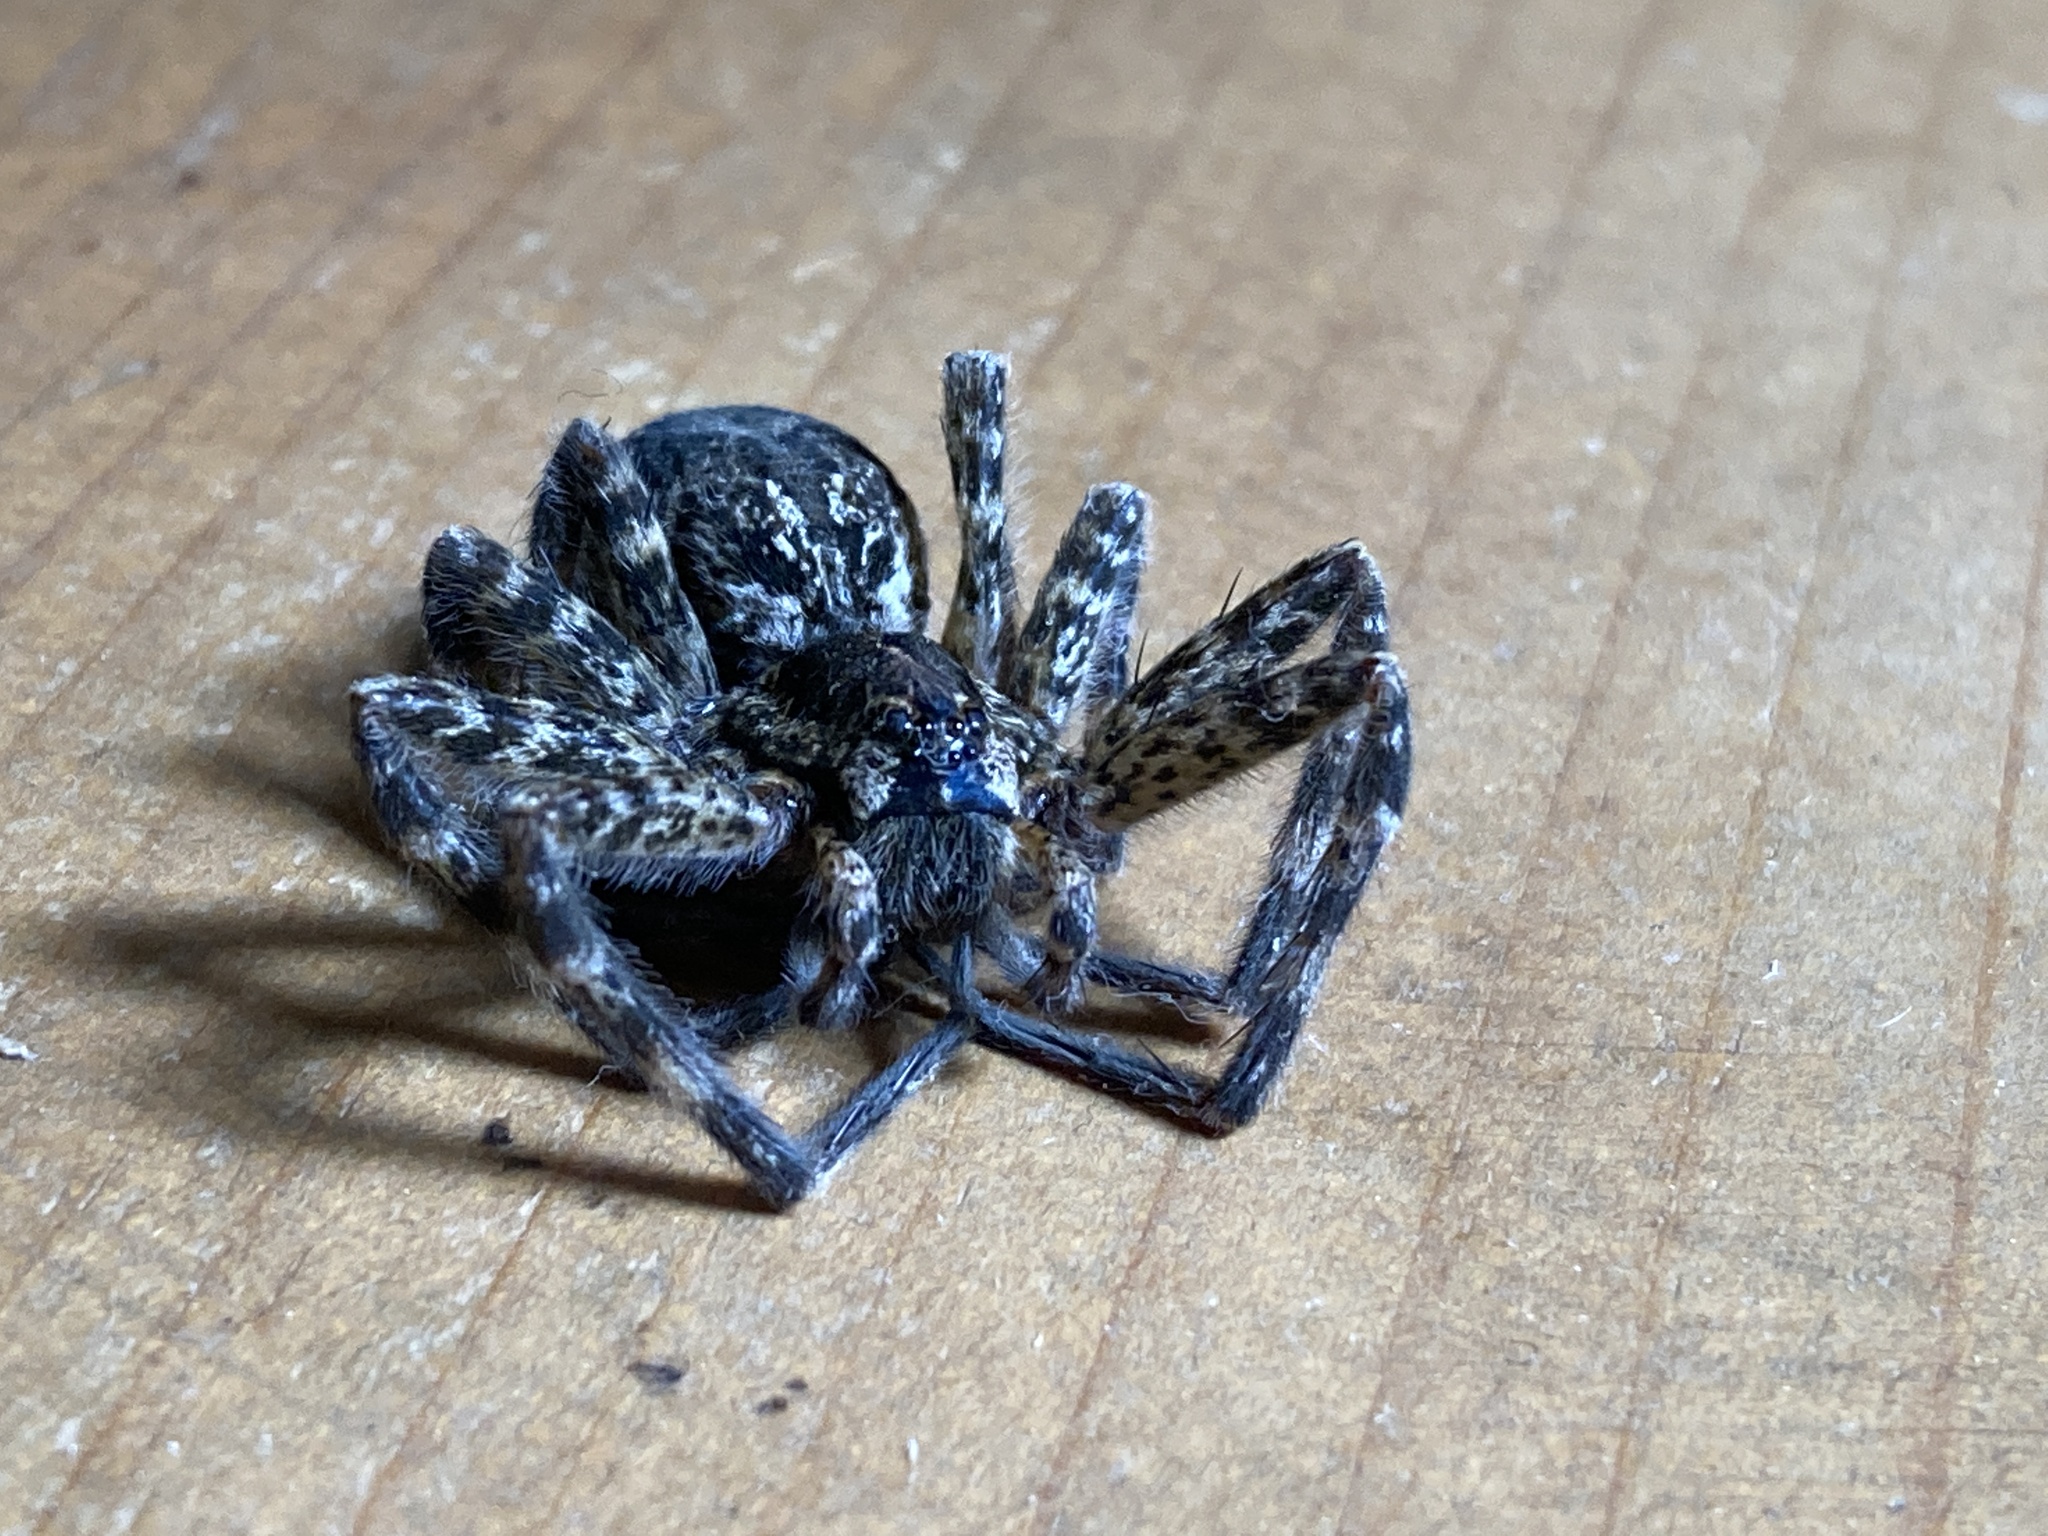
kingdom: Animalia
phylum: Arthropoda
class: Arachnida
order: Araneae
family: Pisauridae
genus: Dolomedes
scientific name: Dolomedes tenebrosus
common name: Dark fishing spider
